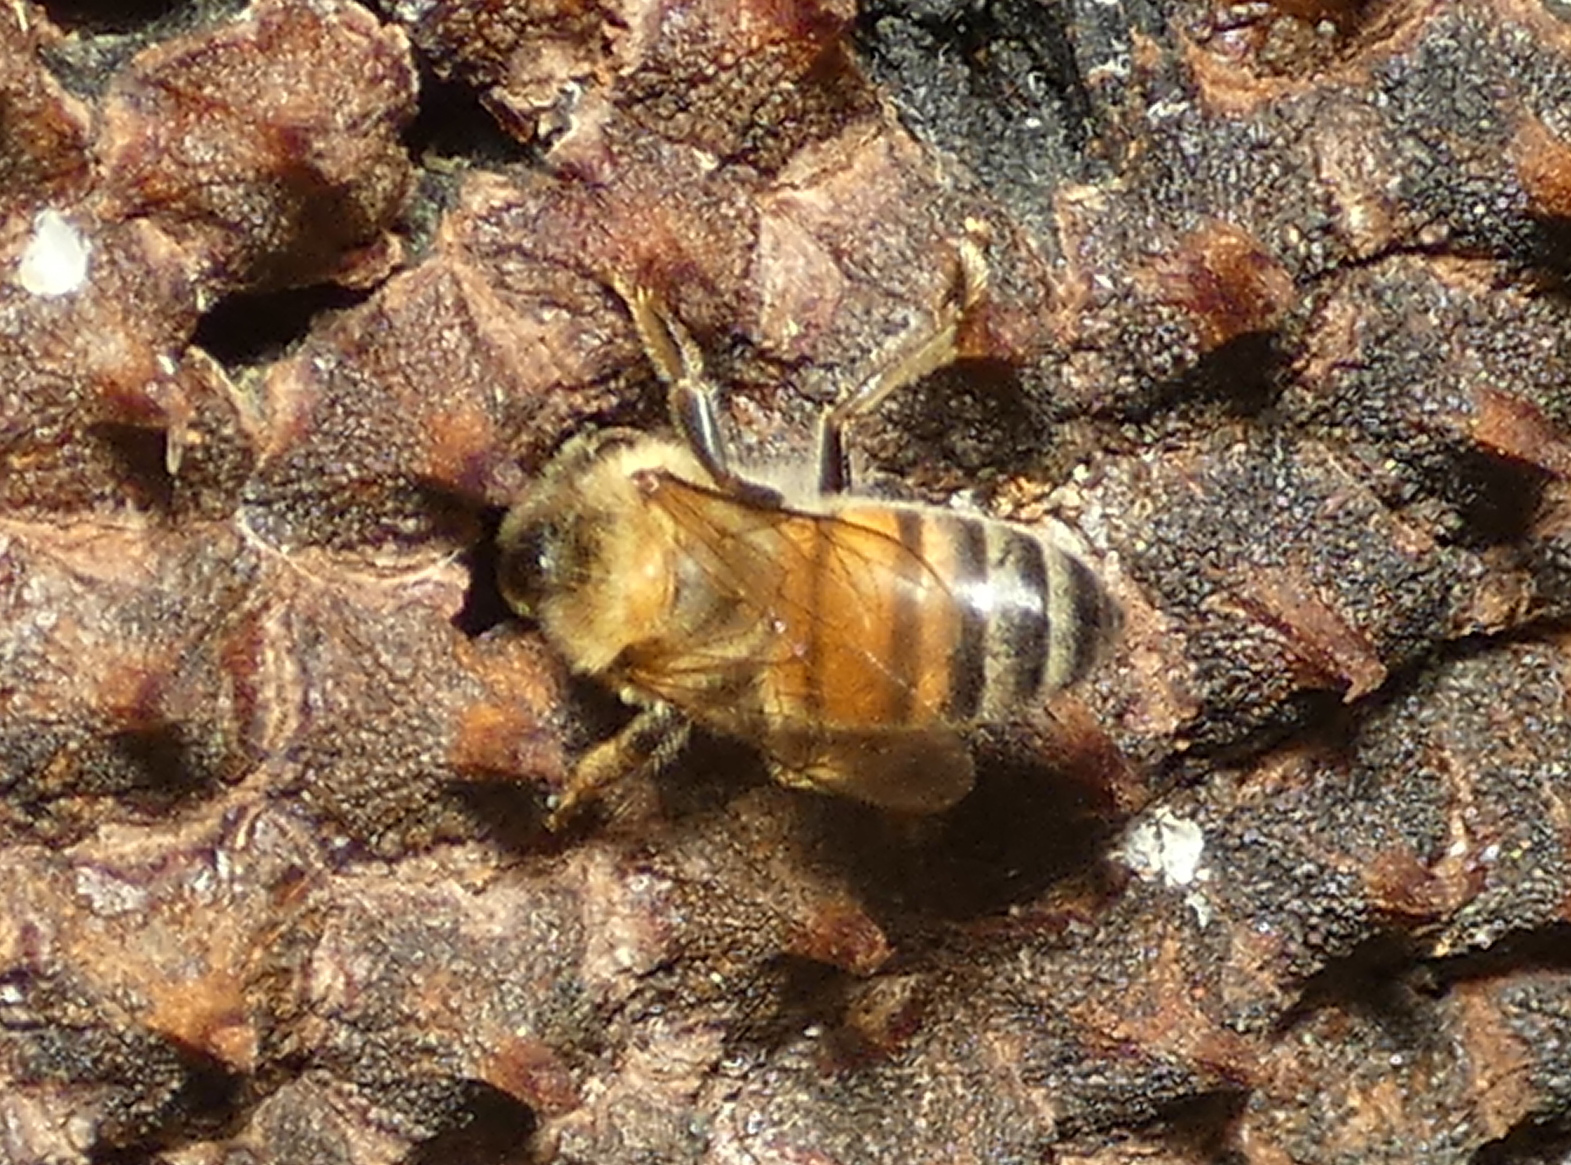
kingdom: Animalia
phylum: Arthropoda
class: Insecta
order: Hymenoptera
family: Apidae
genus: Apis
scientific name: Apis mellifera
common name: Honey bee
